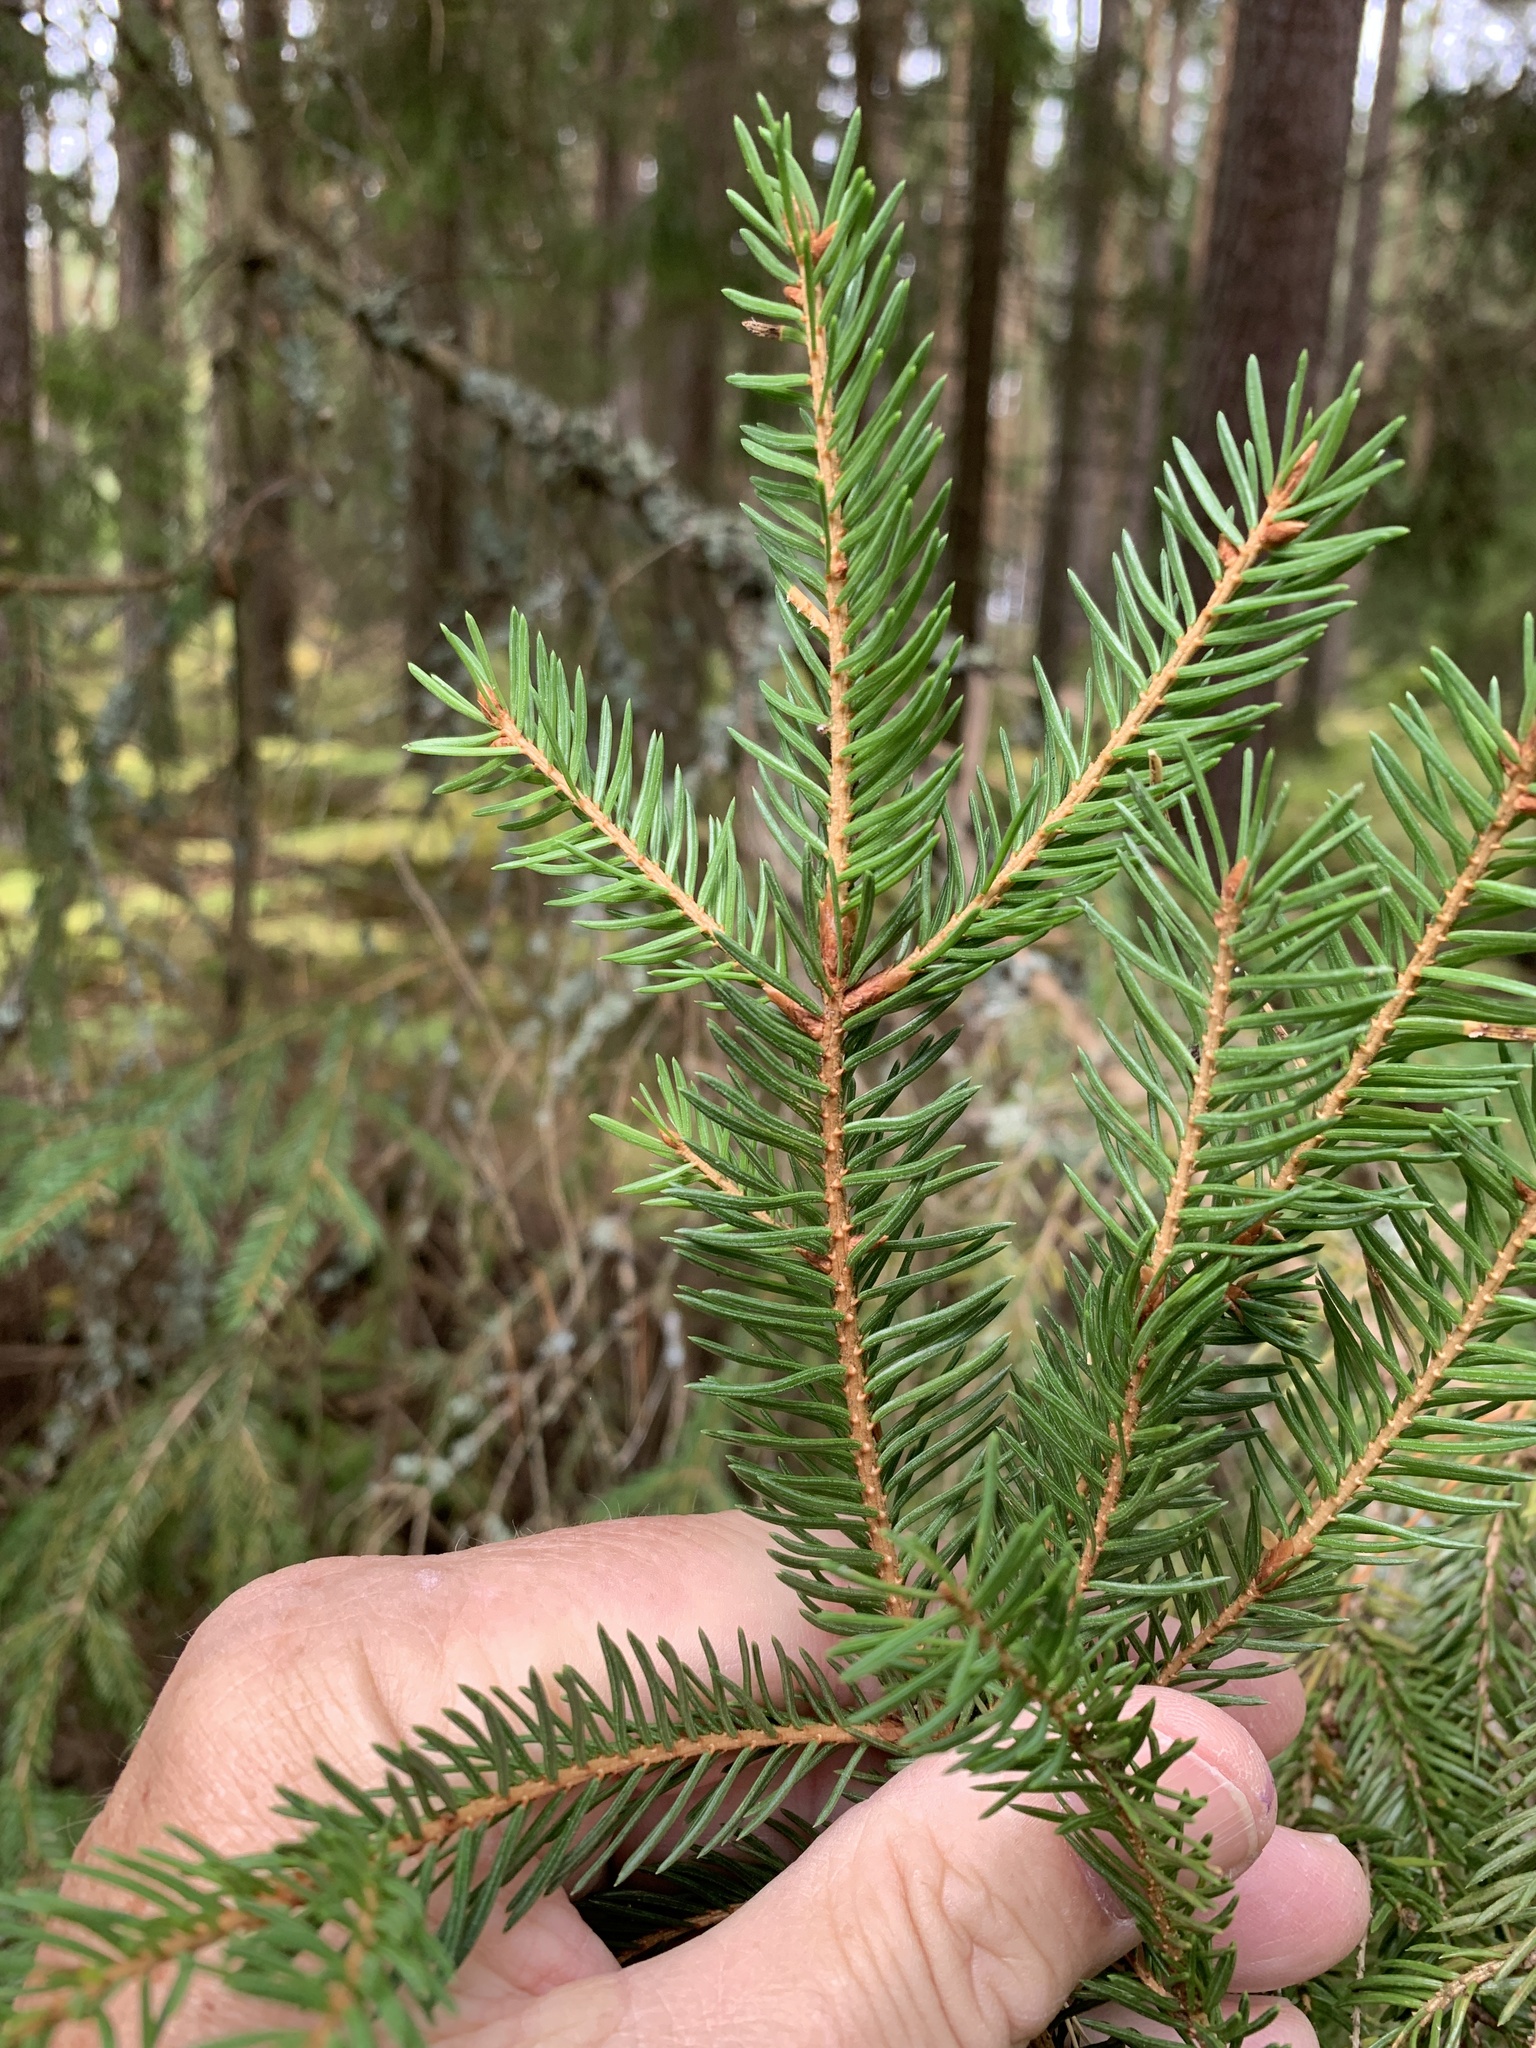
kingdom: Plantae
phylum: Tracheophyta
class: Pinopsida
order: Pinales
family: Pinaceae
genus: Picea
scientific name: Picea abies
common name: Norway spruce
